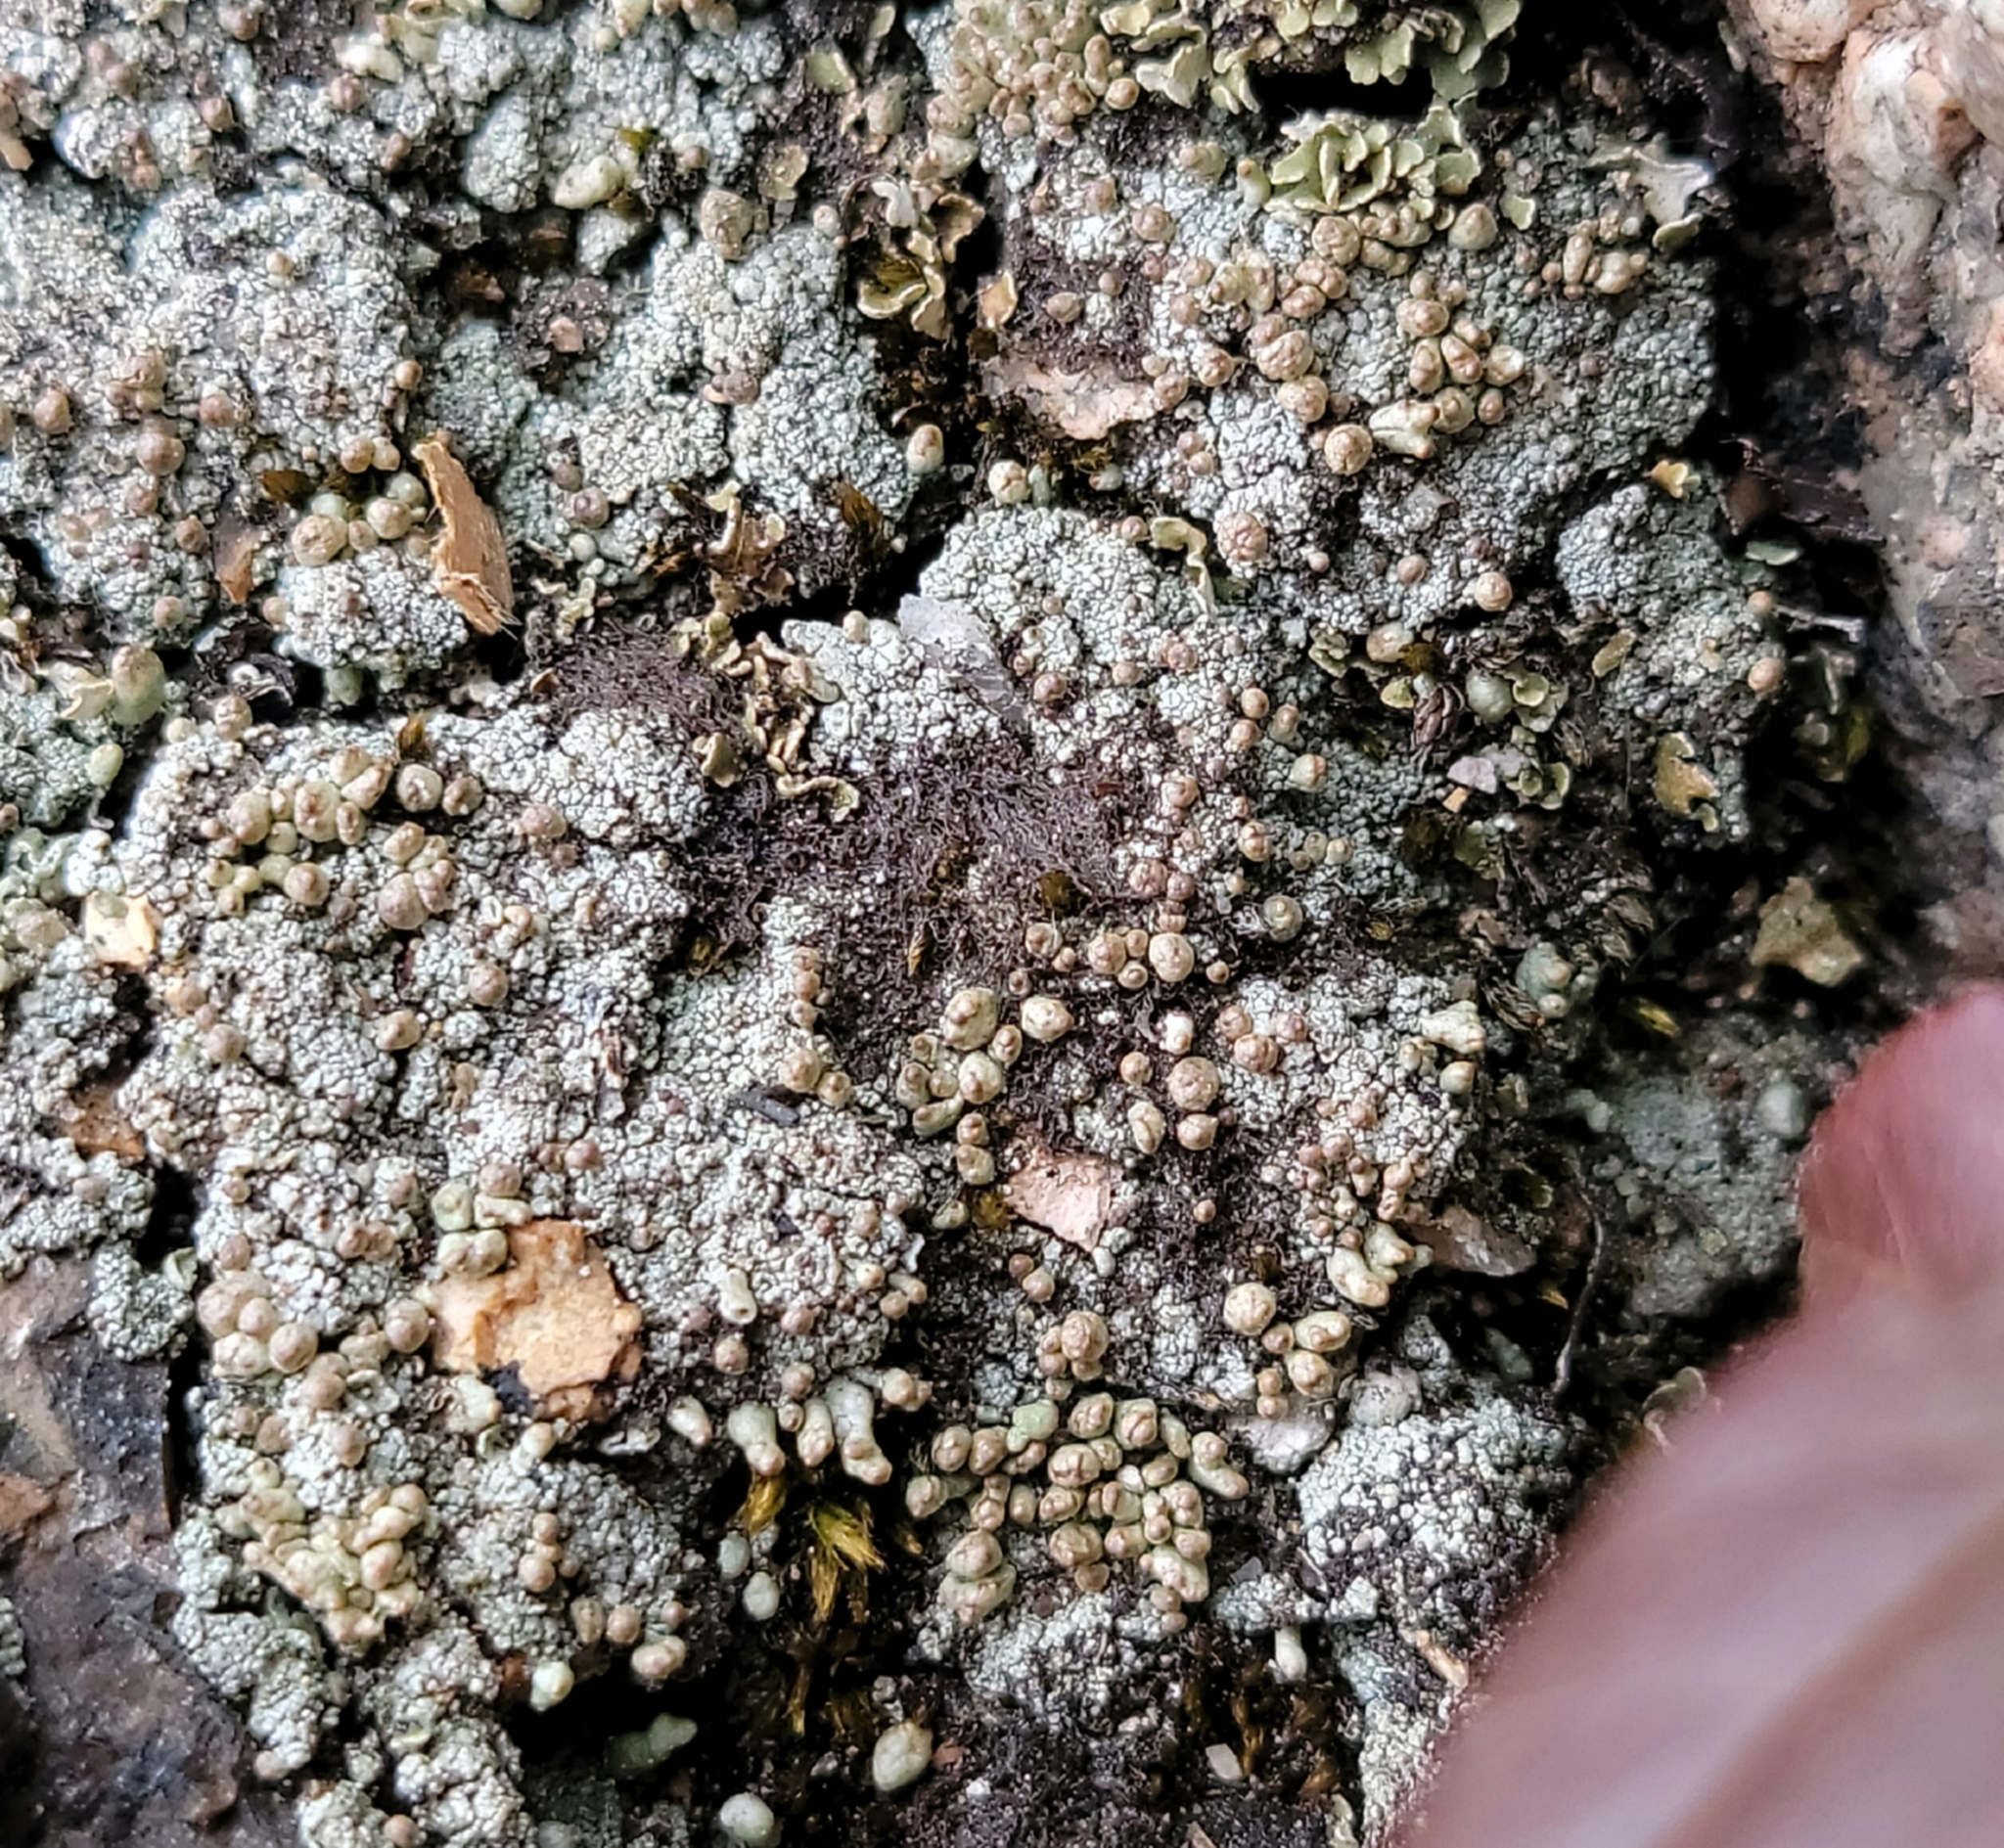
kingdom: Fungi
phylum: Ascomycota
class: Lecanoromycetes
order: Lecanorales
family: Cladoniaceae
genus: Pycnothelia
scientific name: Pycnothelia papillaria
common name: Nipple lichen
